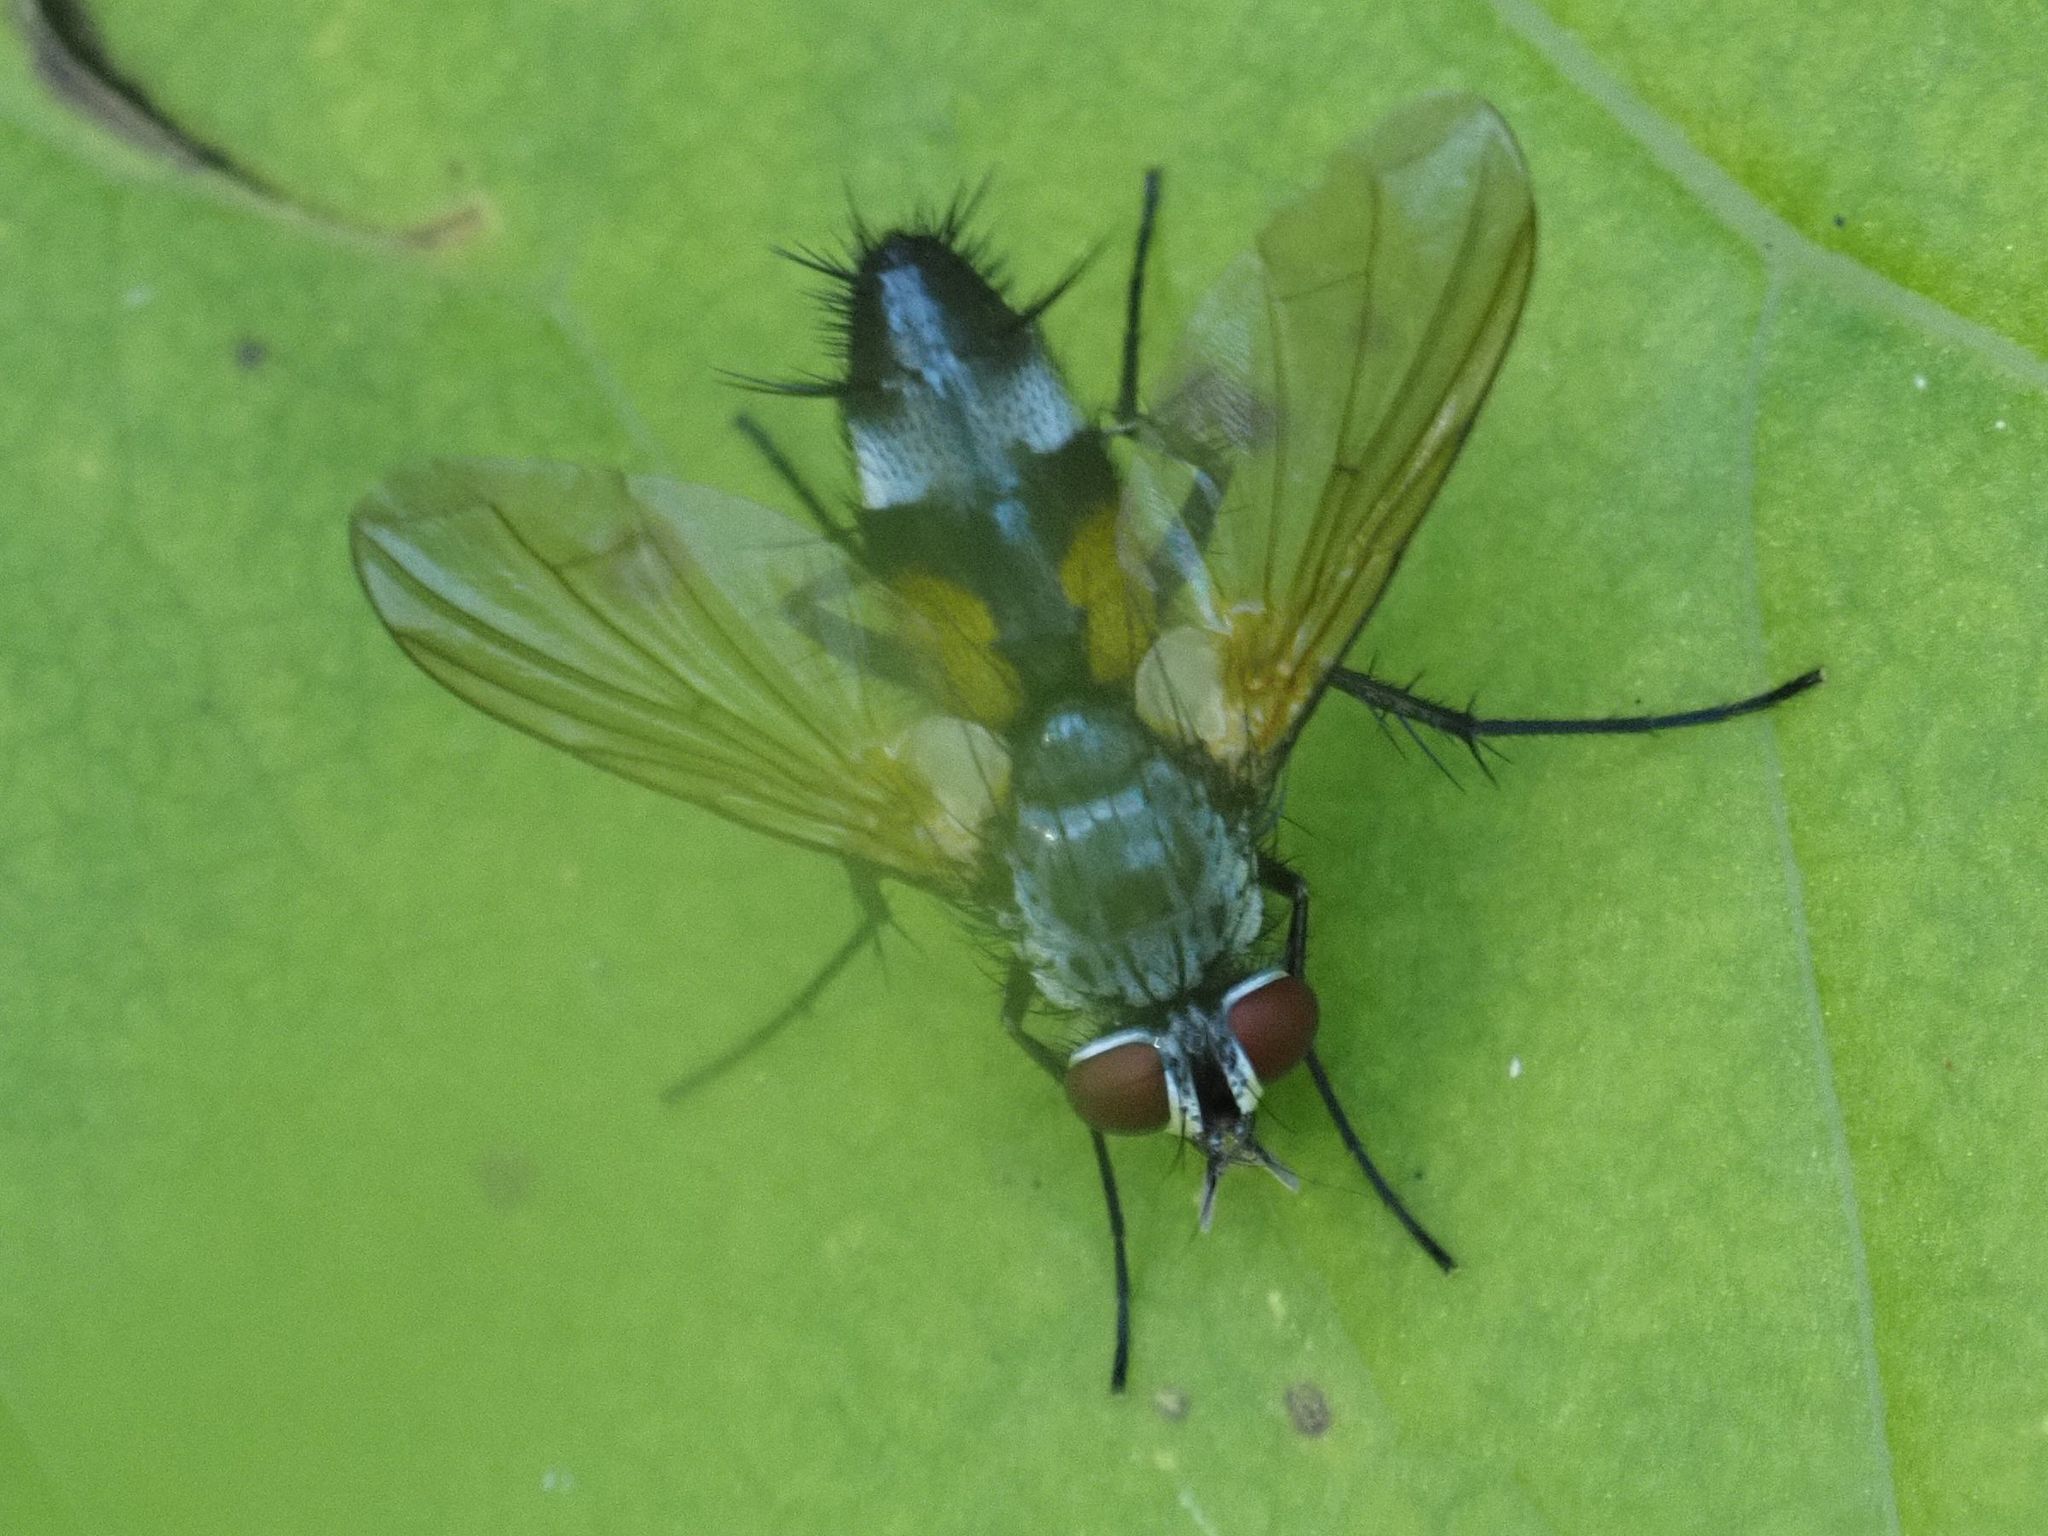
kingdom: Animalia
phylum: Arthropoda
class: Insecta
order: Diptera
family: Tachinidae
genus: Atylostoma
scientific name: Atylostoma tricolor
